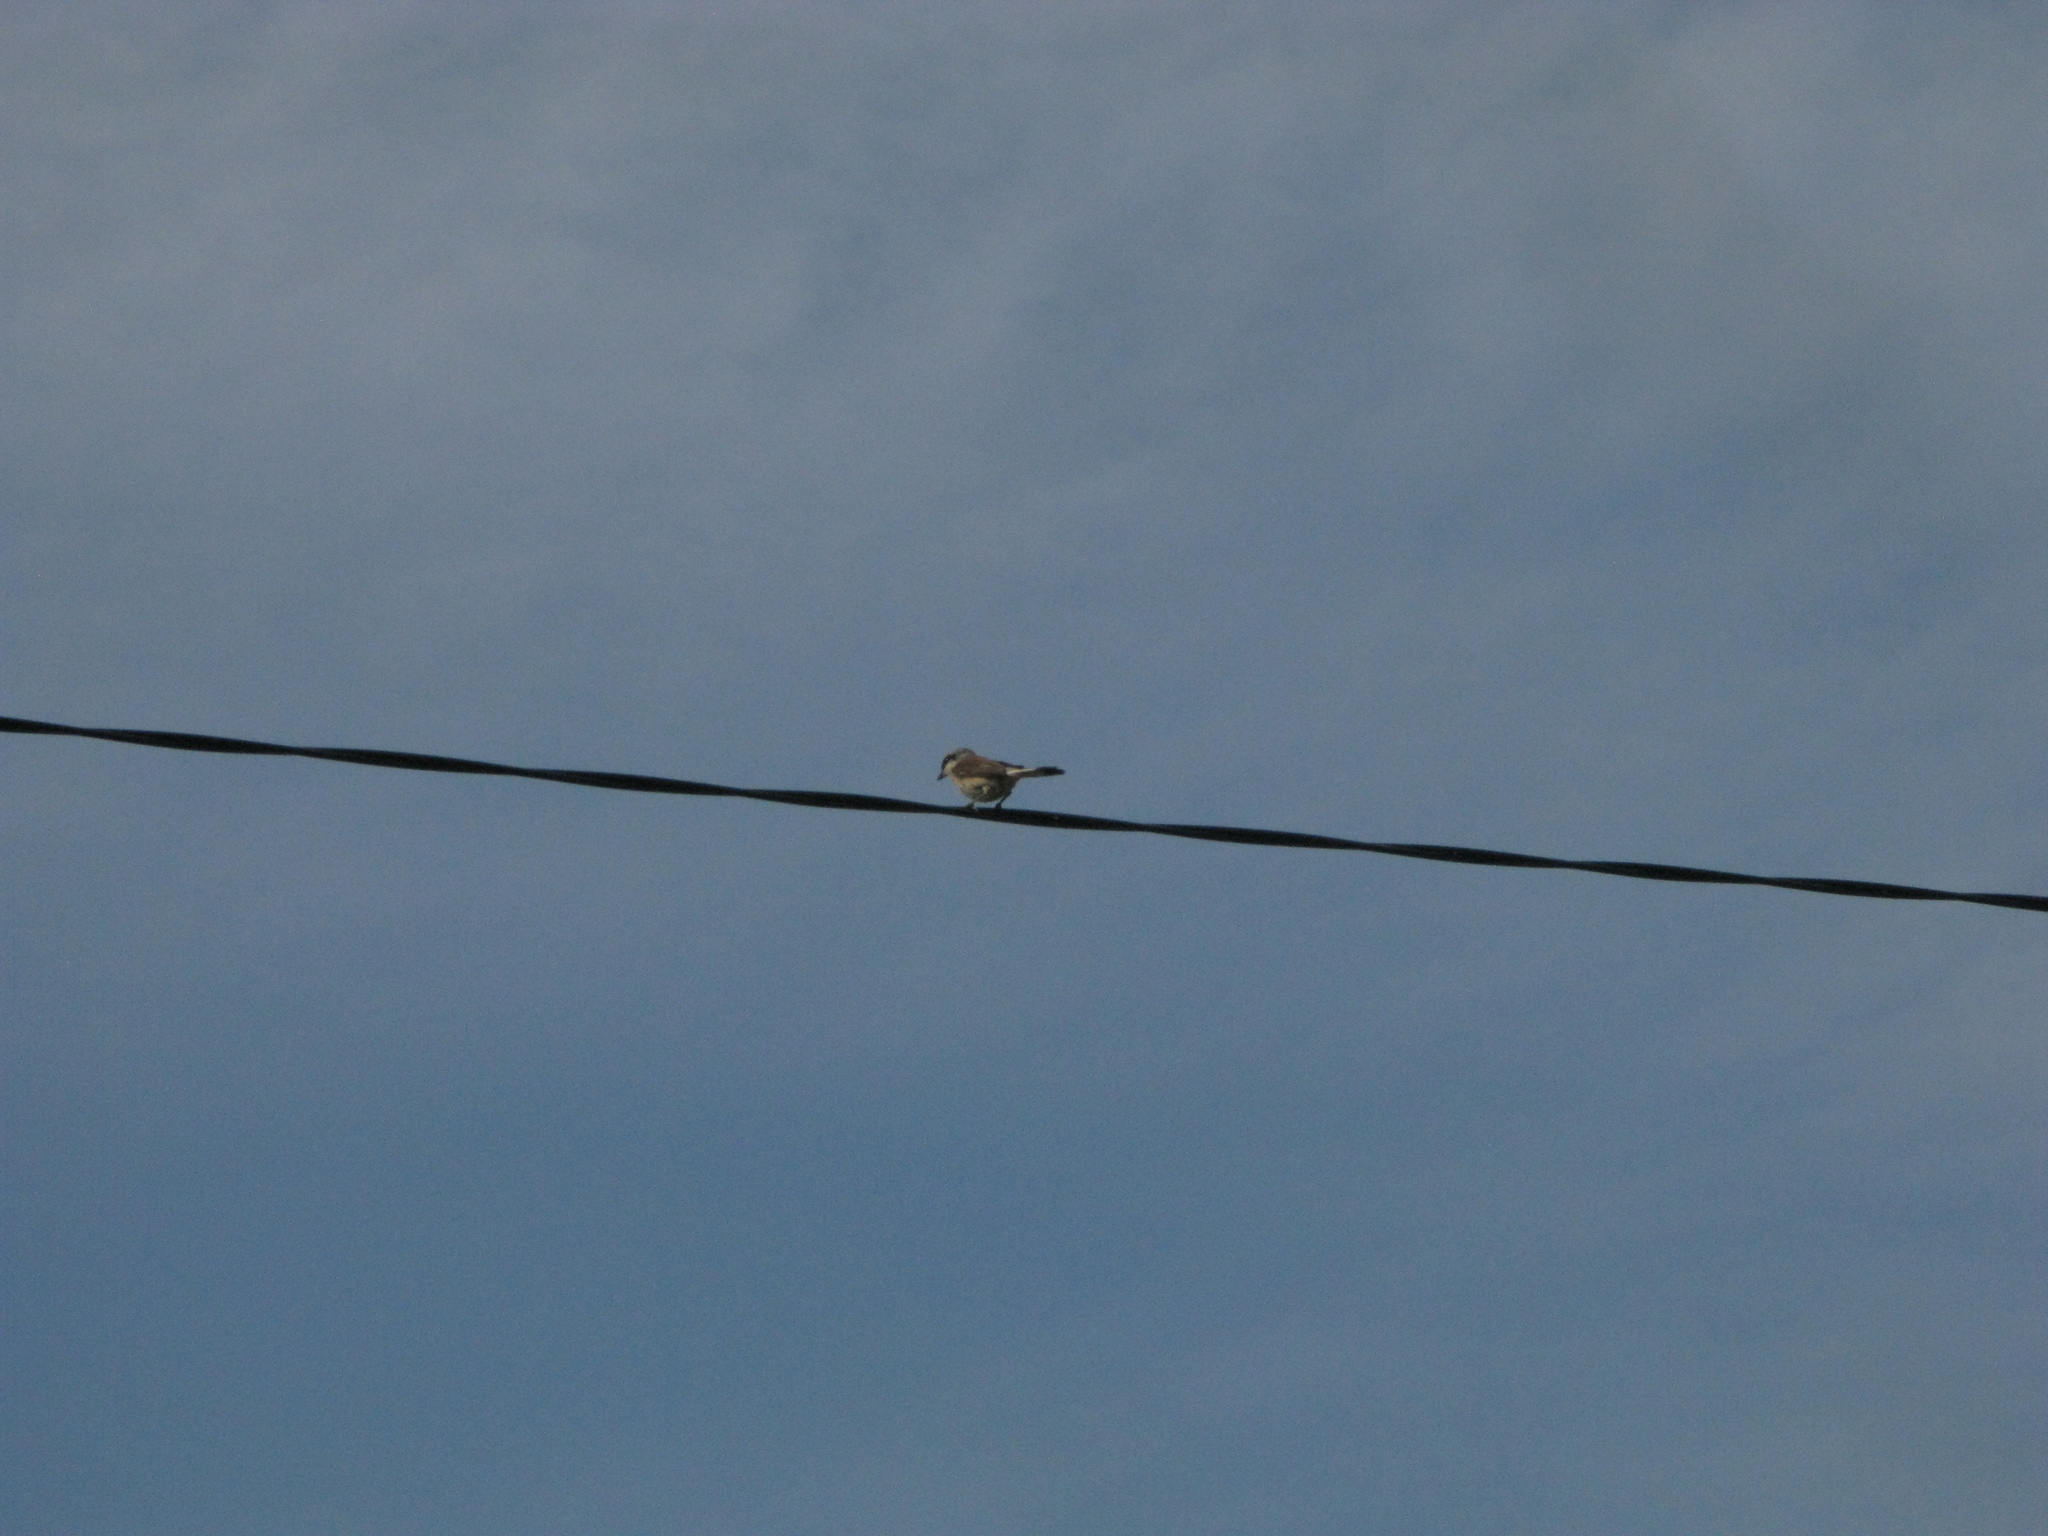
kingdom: Animalia
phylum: Chordata
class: Aves
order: Passeriformes
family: Laniidae
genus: Lanius
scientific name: Lanius collurio
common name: Red-backed shrike
